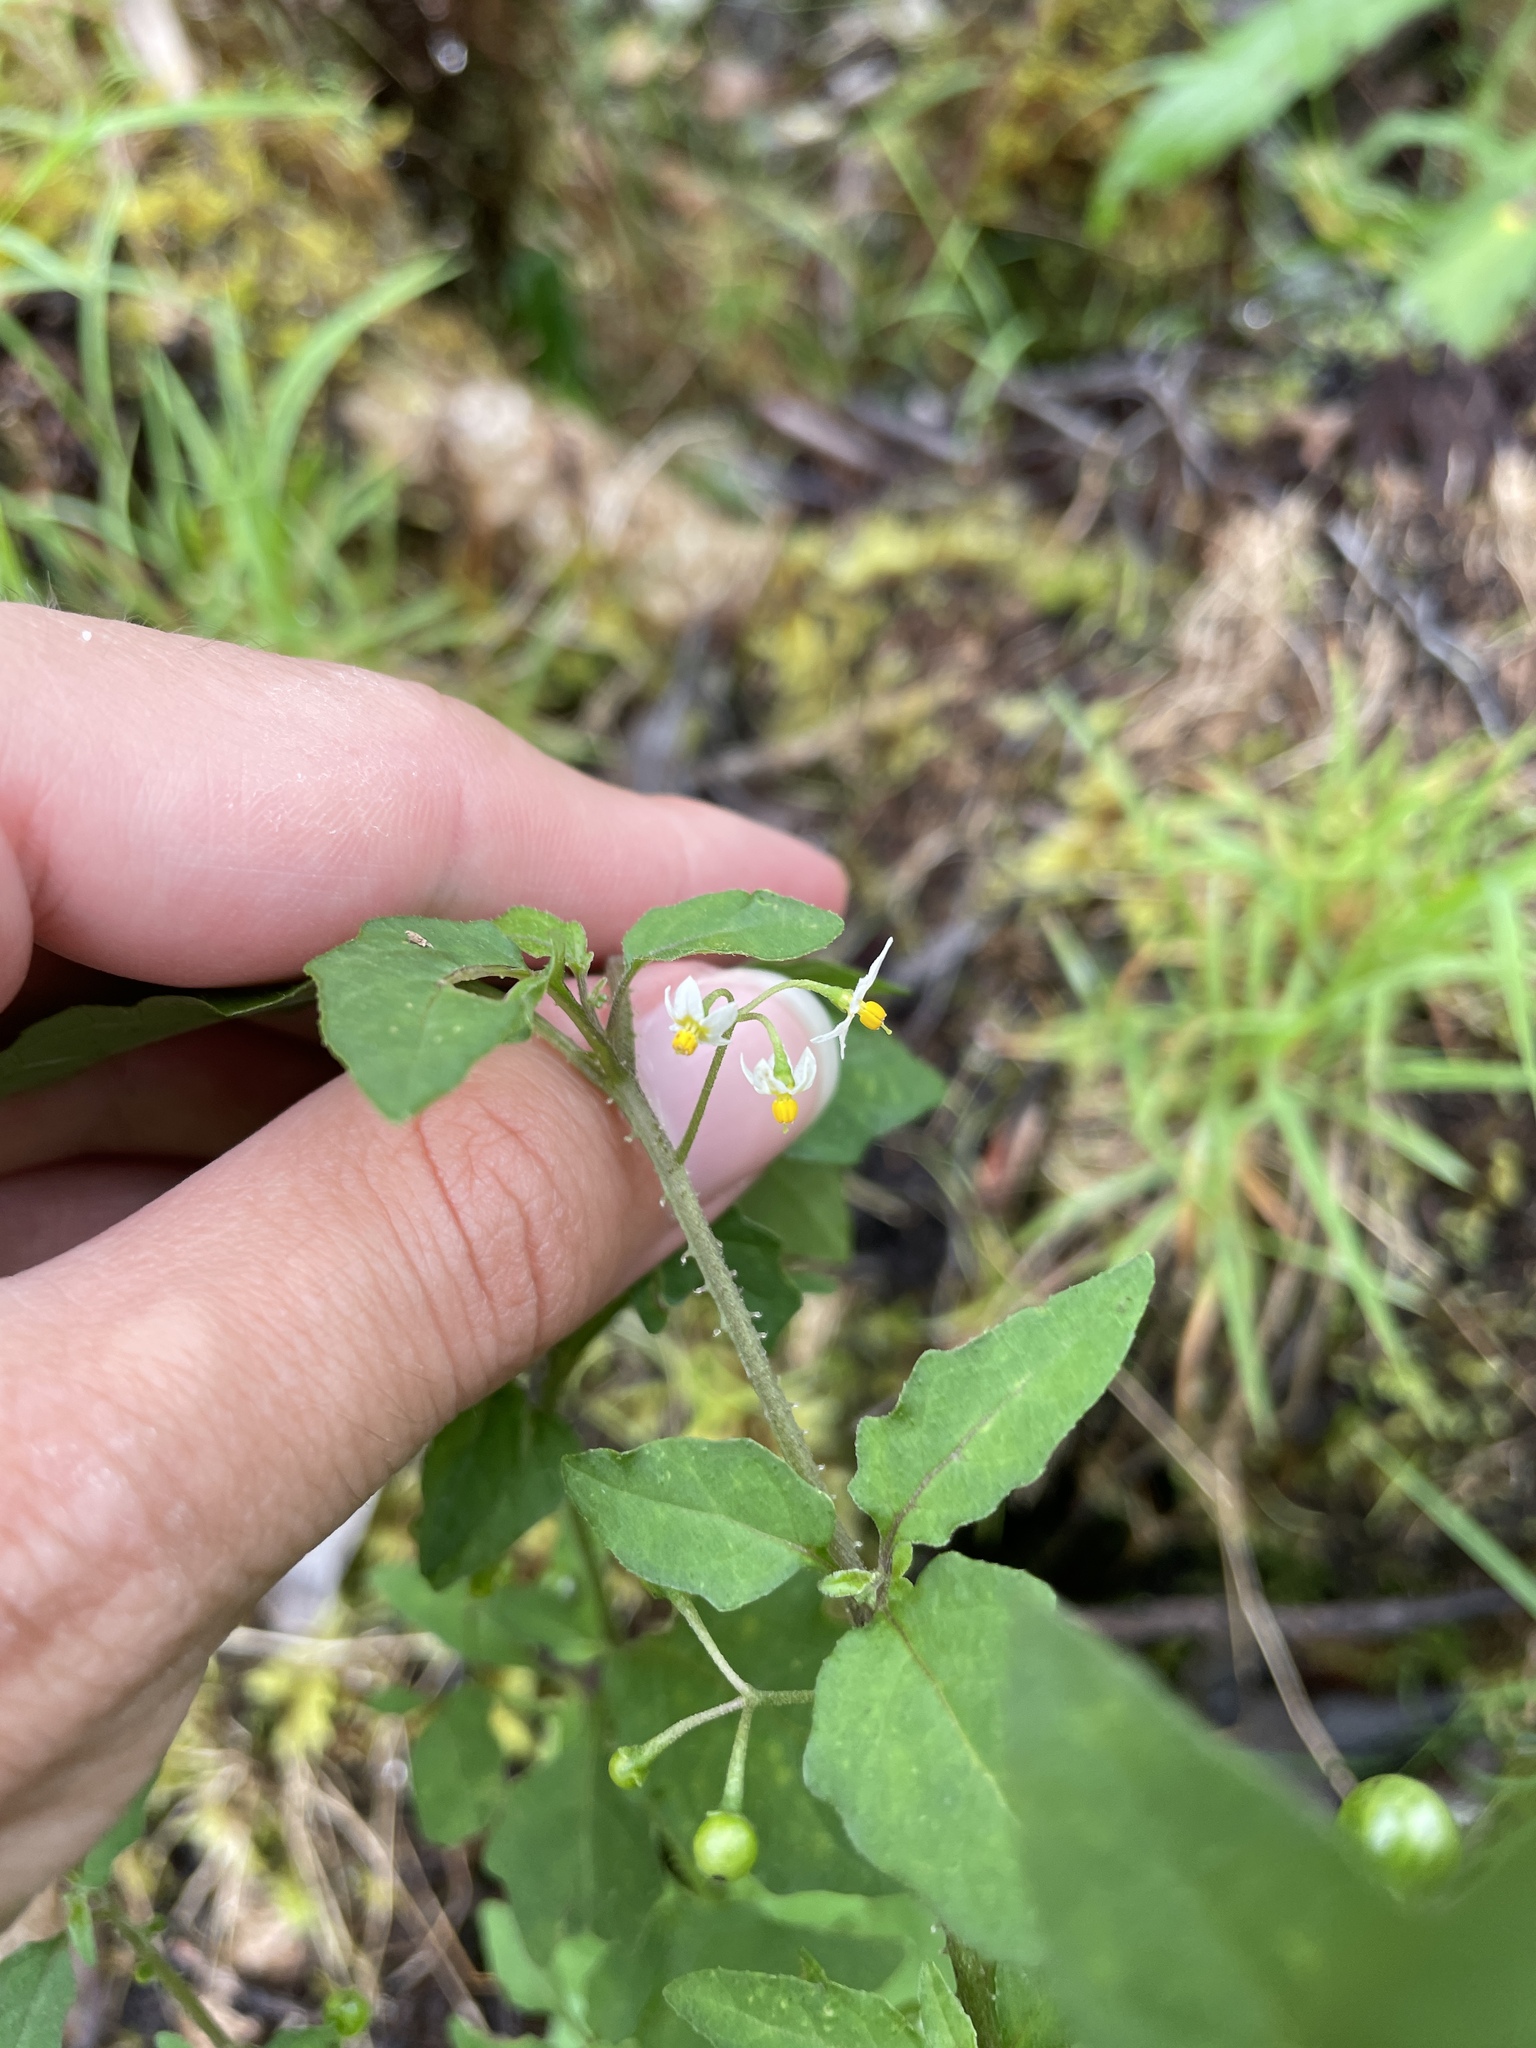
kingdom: Plantae
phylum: Tracheophyta
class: Magnoliopsida
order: Solanales
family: Solanaceae
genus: Solanum
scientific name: Solanum americanum
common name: American black nightshade
